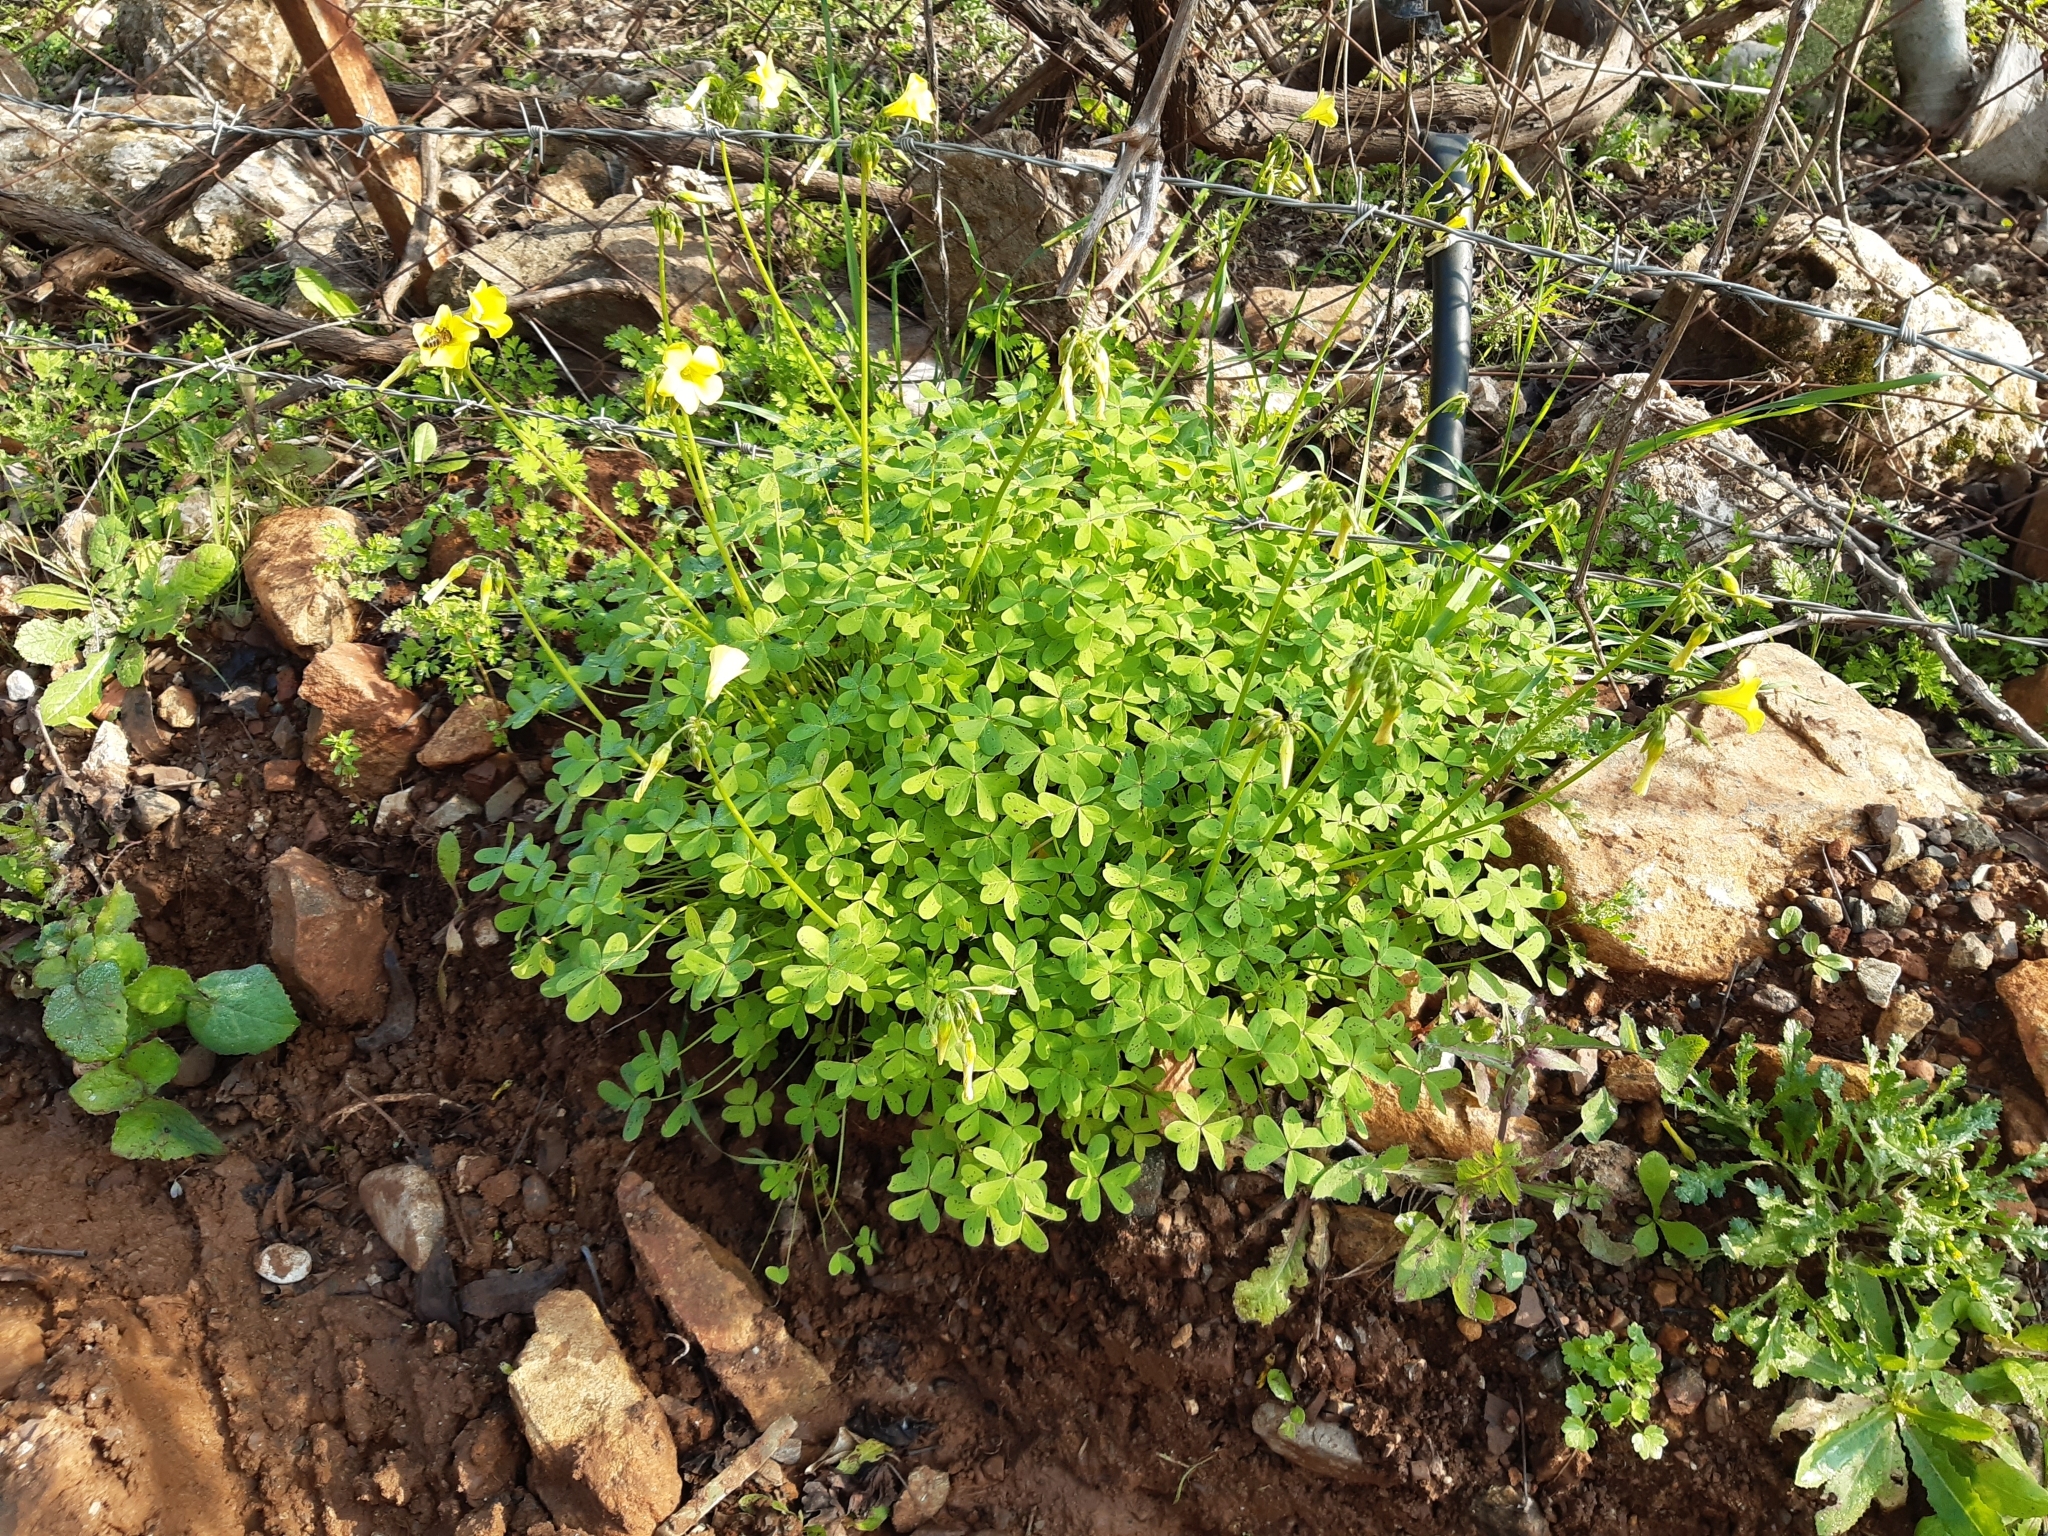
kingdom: Plantae
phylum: Tracheophyta
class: Magnoliopsida
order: Oxalidales
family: Oxalidaceae
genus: Oxalis
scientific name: Oxalis pes-caprae
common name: Bermuda-buttercup
